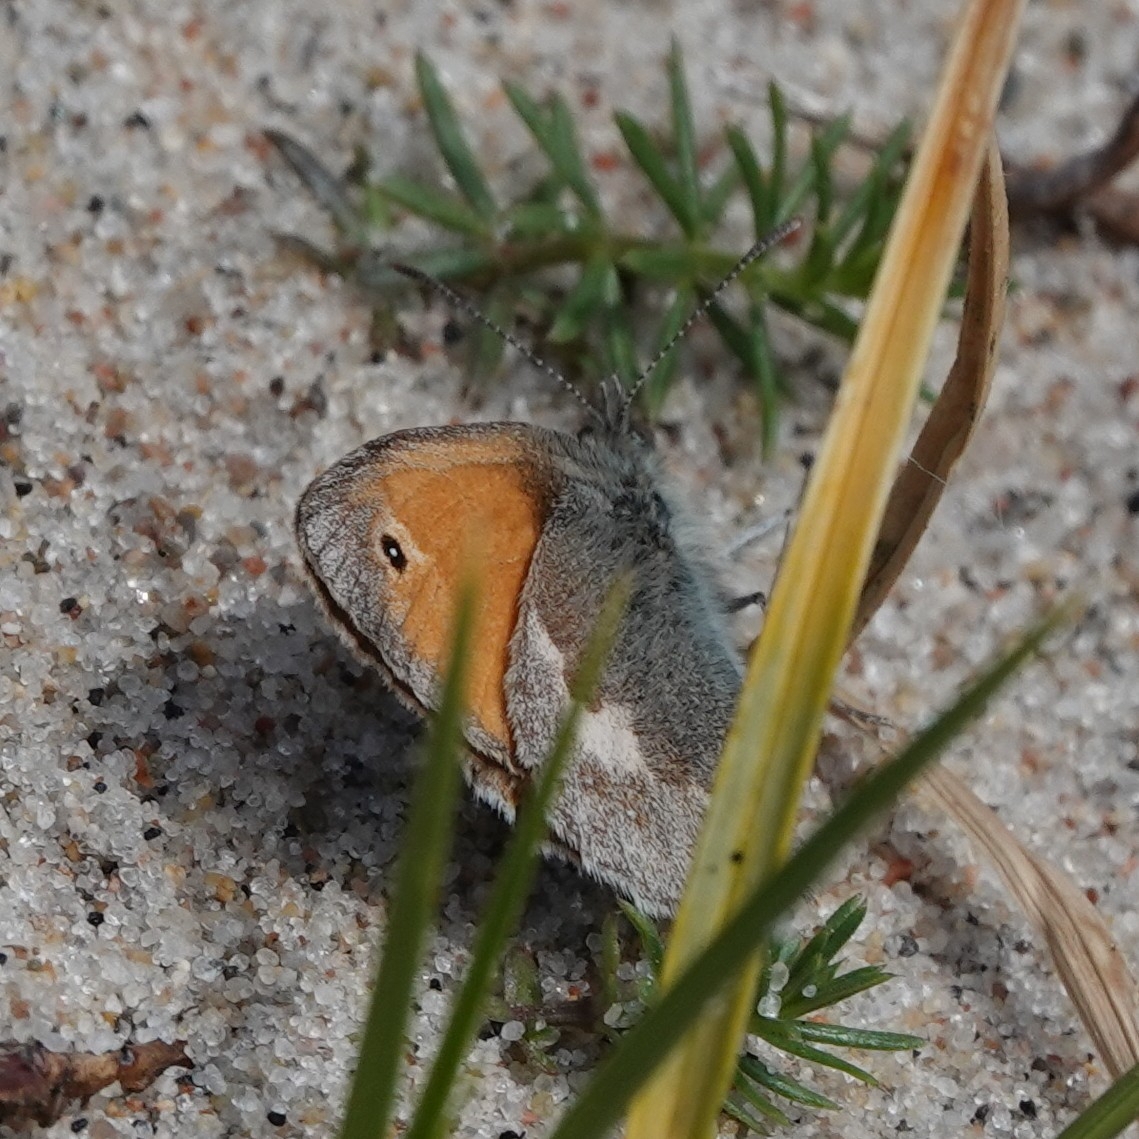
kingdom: Animalia
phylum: Arthropoda
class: Insecta
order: Lepidoptera
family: Nymphalidae
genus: Coenonympha
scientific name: Coenonympha pamphilus
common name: Small heath
